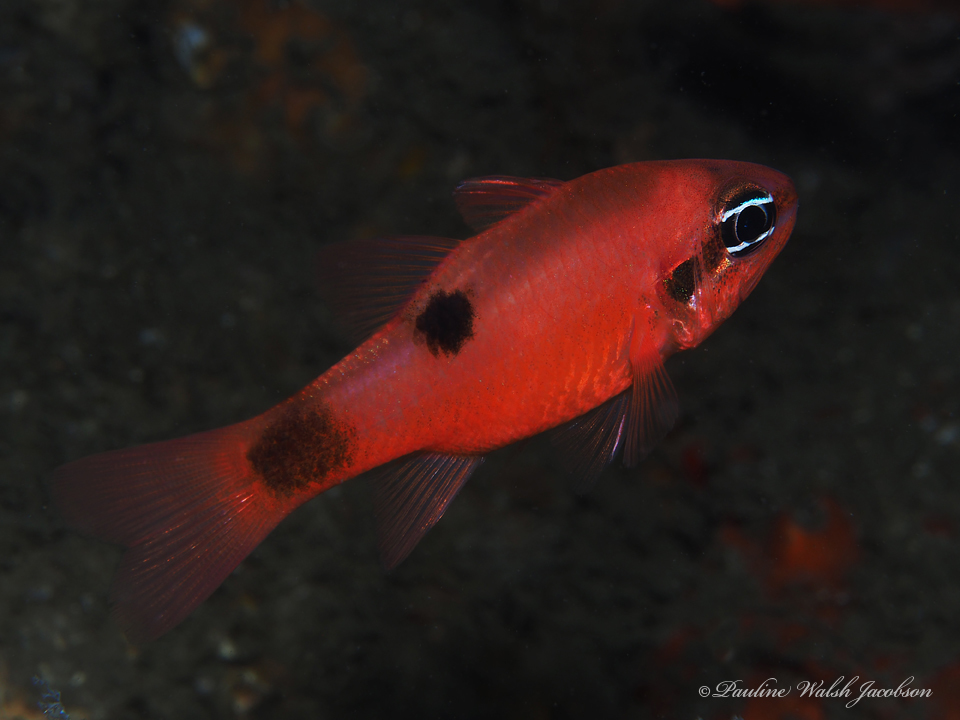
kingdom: Animalia
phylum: Chordata
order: Perciformes
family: Apogonidae
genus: Apogon
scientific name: Apogon maculatus
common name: Flamefish
